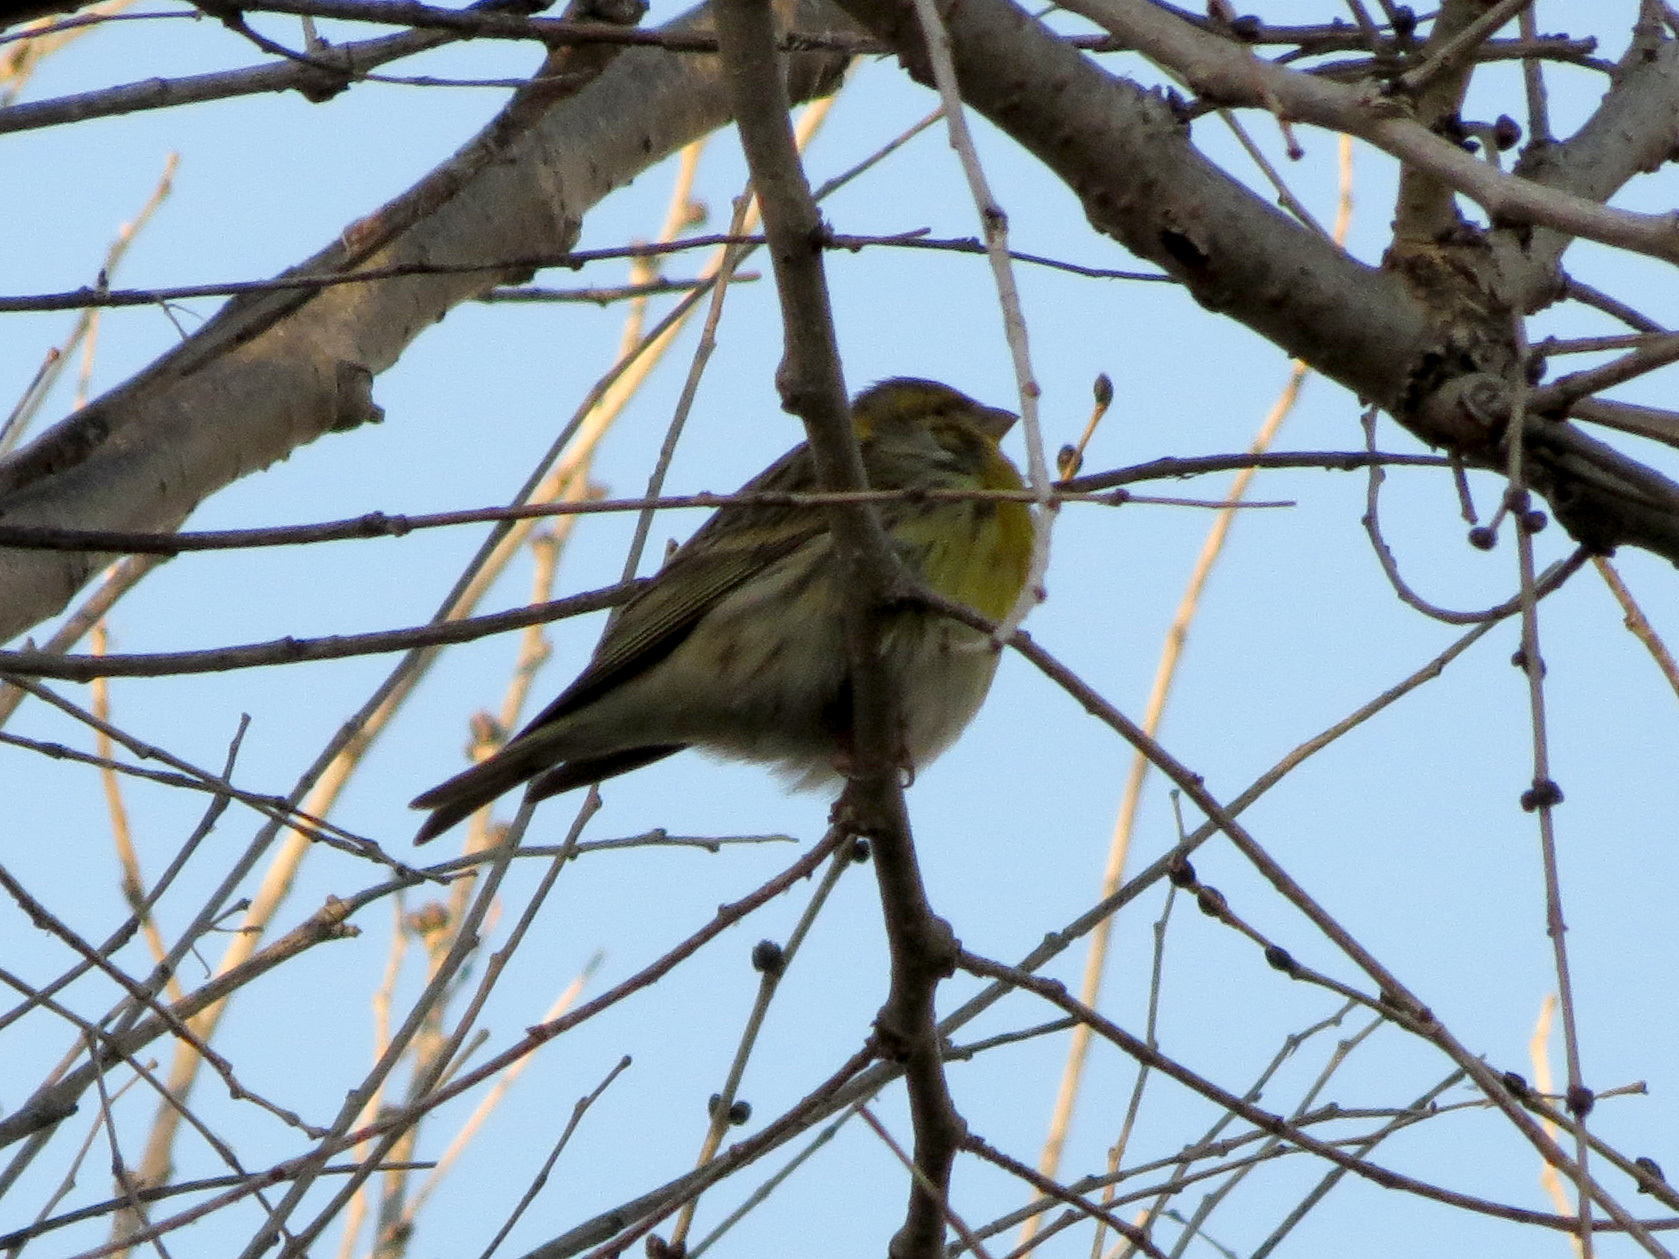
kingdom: Animalia
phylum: Chordata
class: Aves
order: Passeriformes
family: Fringillidae
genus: Serinus
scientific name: Serinus serinus
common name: European serin
